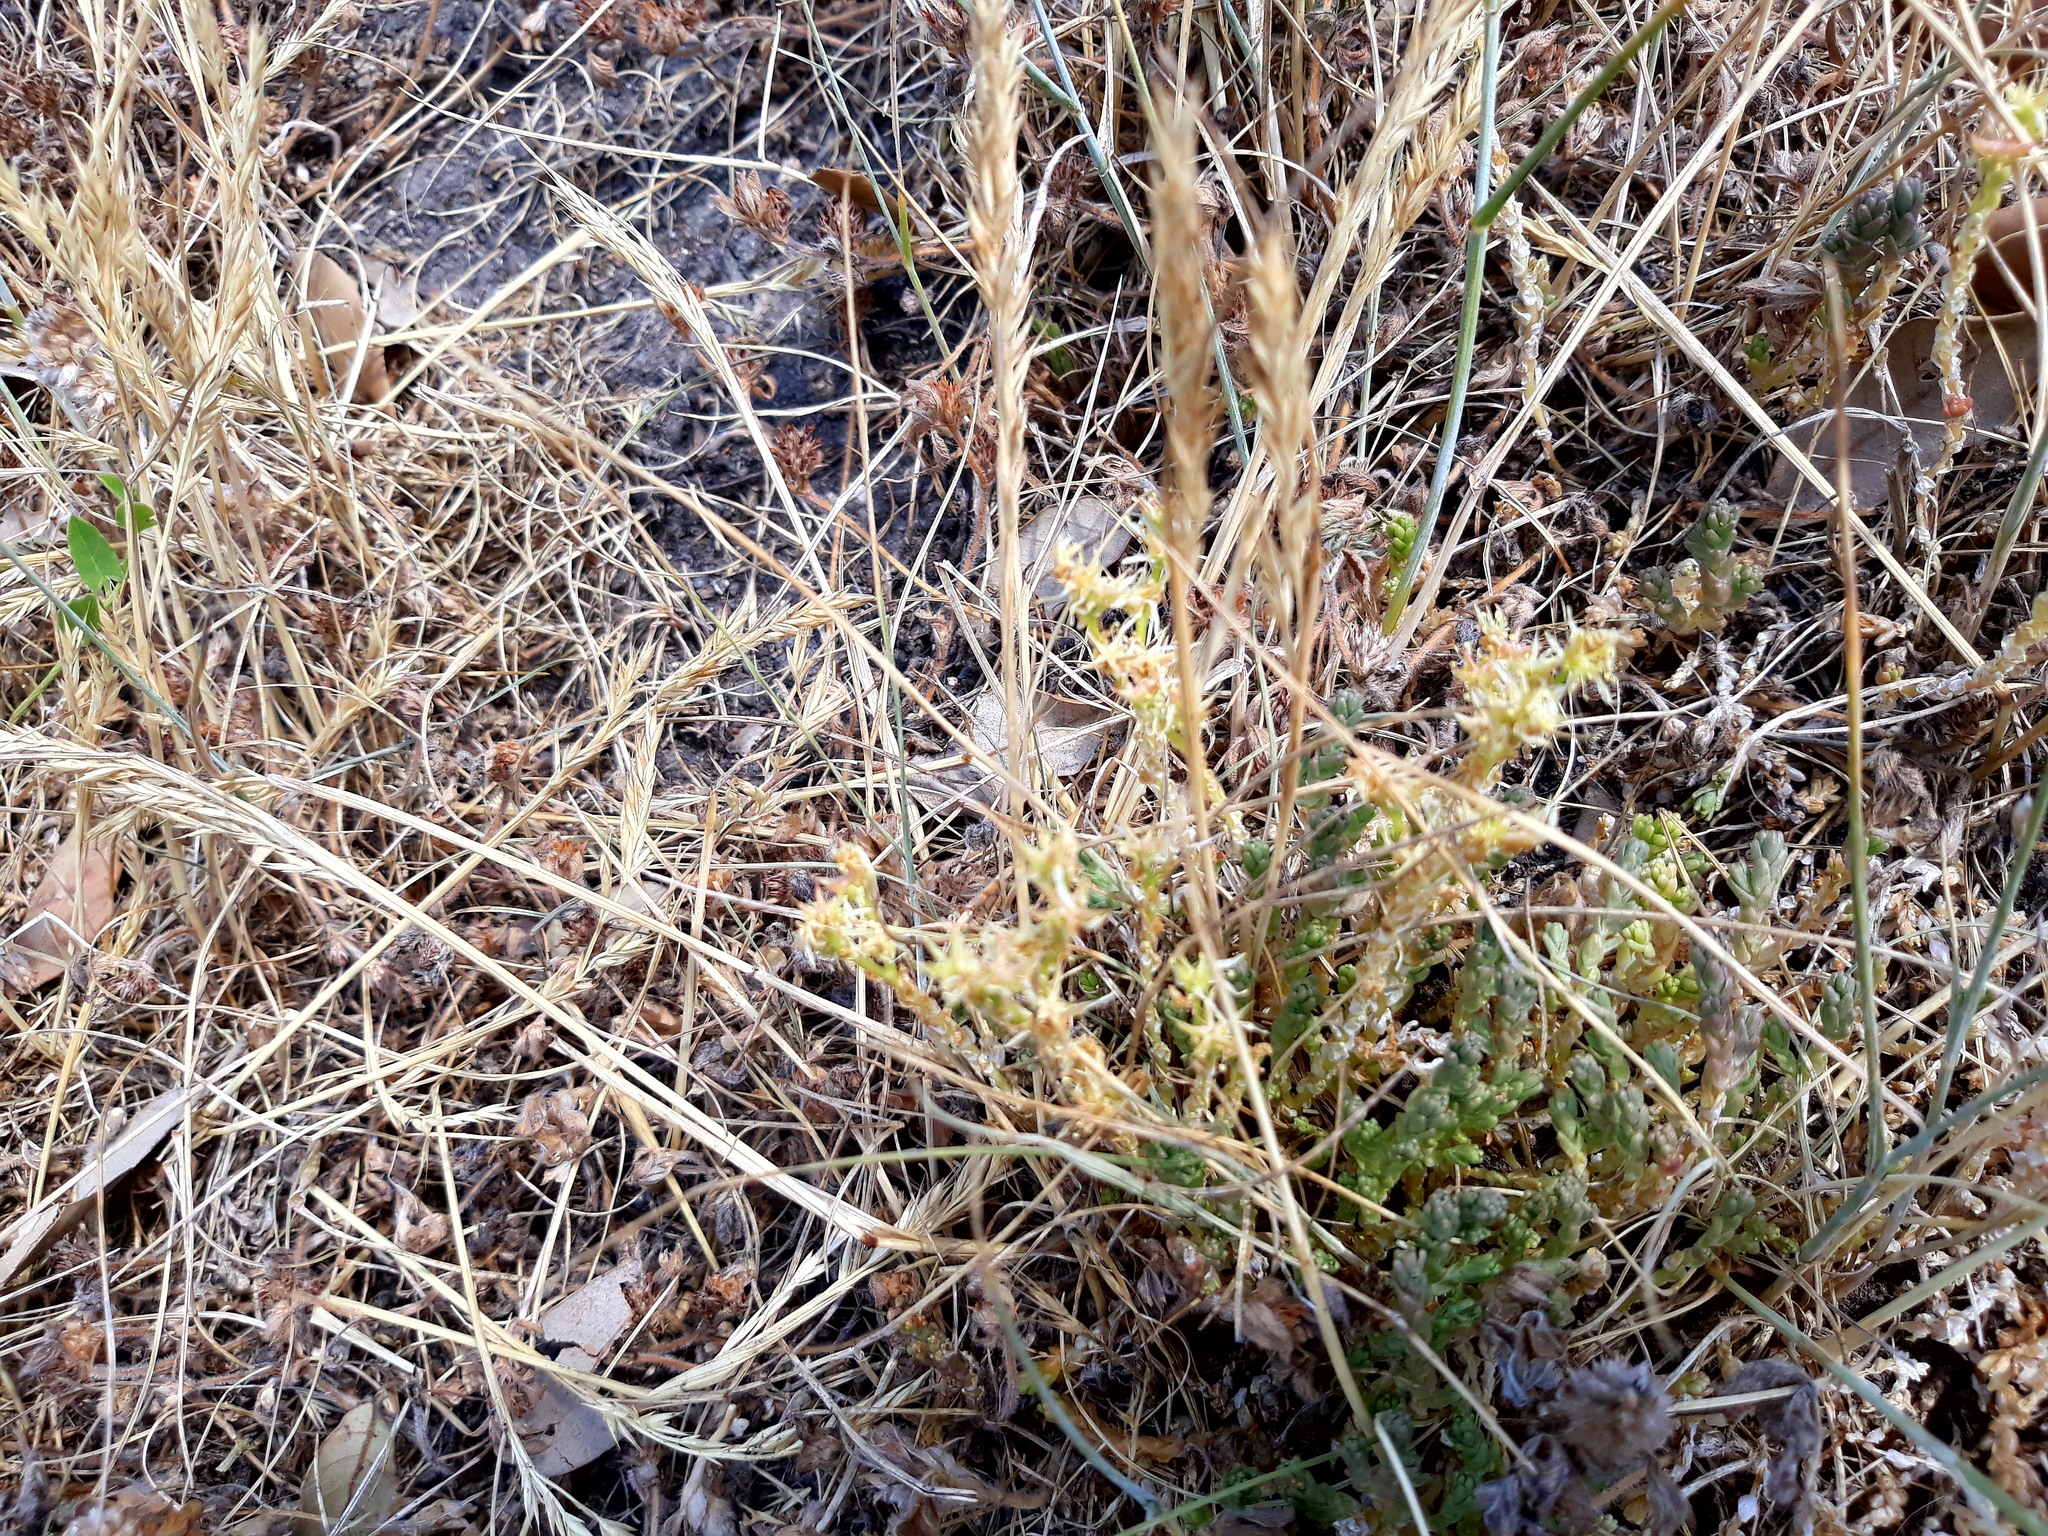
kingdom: Plantae
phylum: Tracheophyta
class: Magnoliopsida
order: Saxifragales
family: Crassulaceae
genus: Sedum
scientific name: Sedum acre
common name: Biting stonecrop
